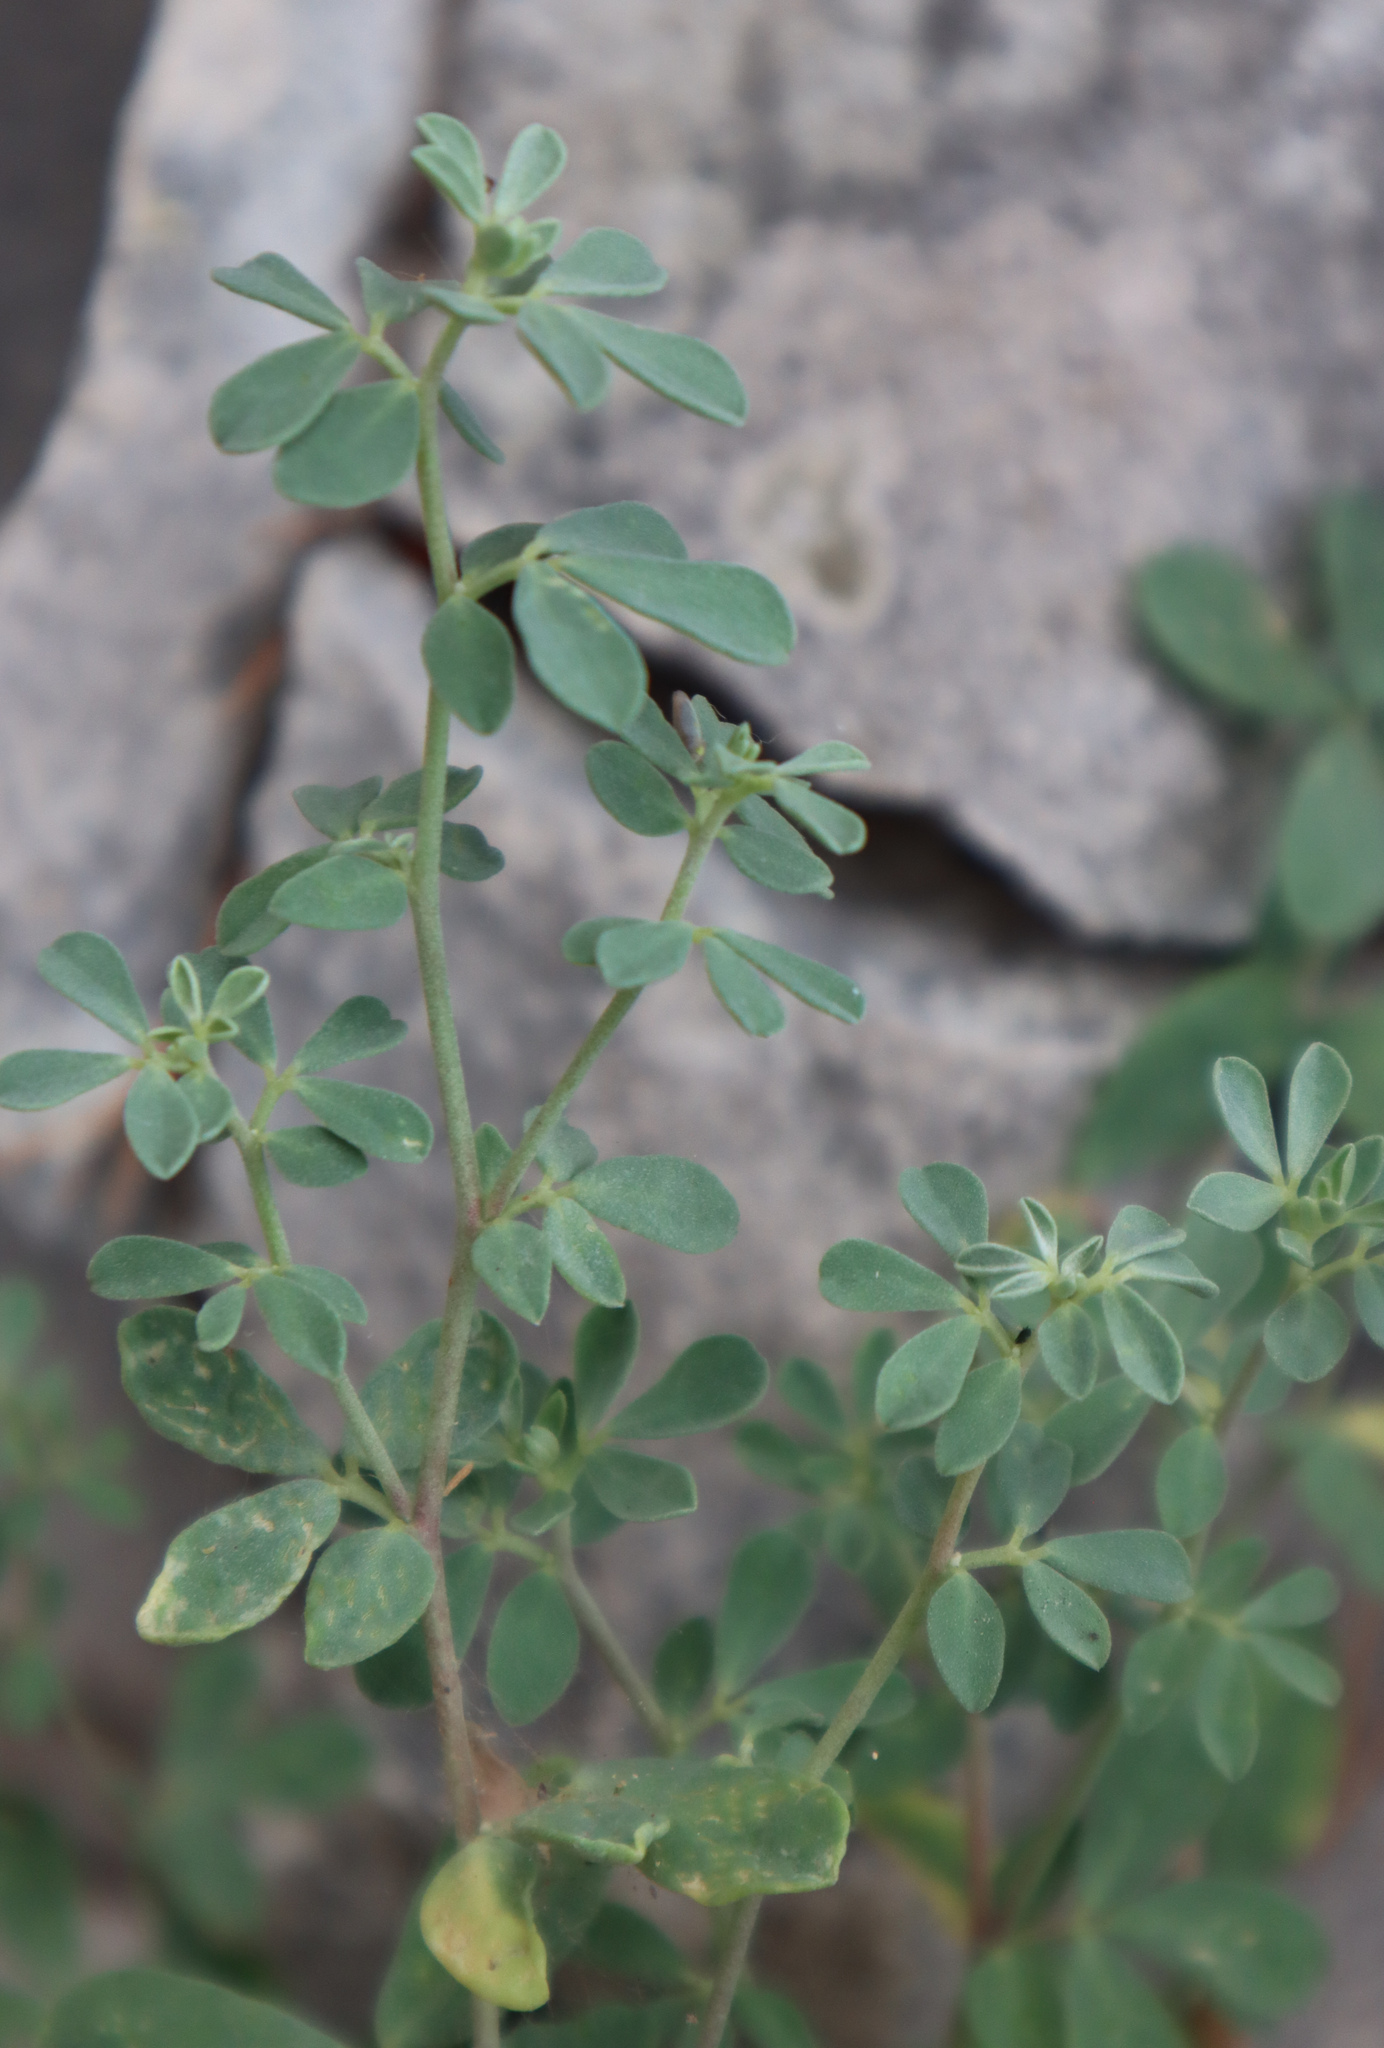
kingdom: Plantae
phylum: Tracheophyta
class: Magnoliopsida
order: Fabales
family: Fabaceae
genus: Lotus
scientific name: Lotus cytisoides
